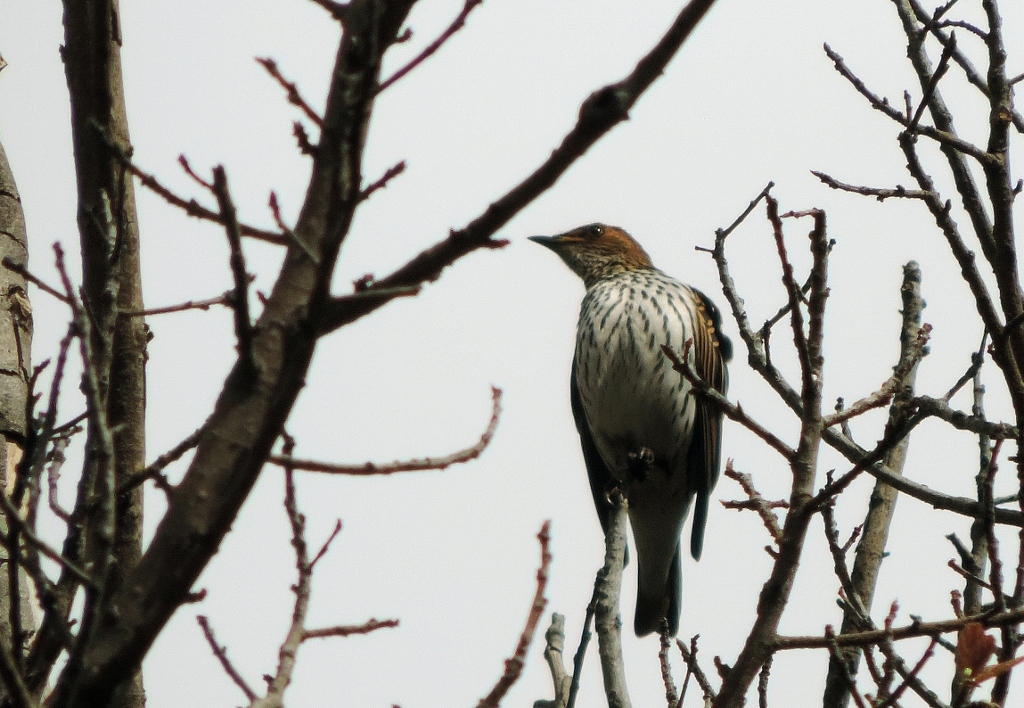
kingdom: Animalia
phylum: Chordata
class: Aves
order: Passeriformes
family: Sturnidae
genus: Cinnyricinclus
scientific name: Cinnyricinclus leucogaster
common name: Violet-backed starling
